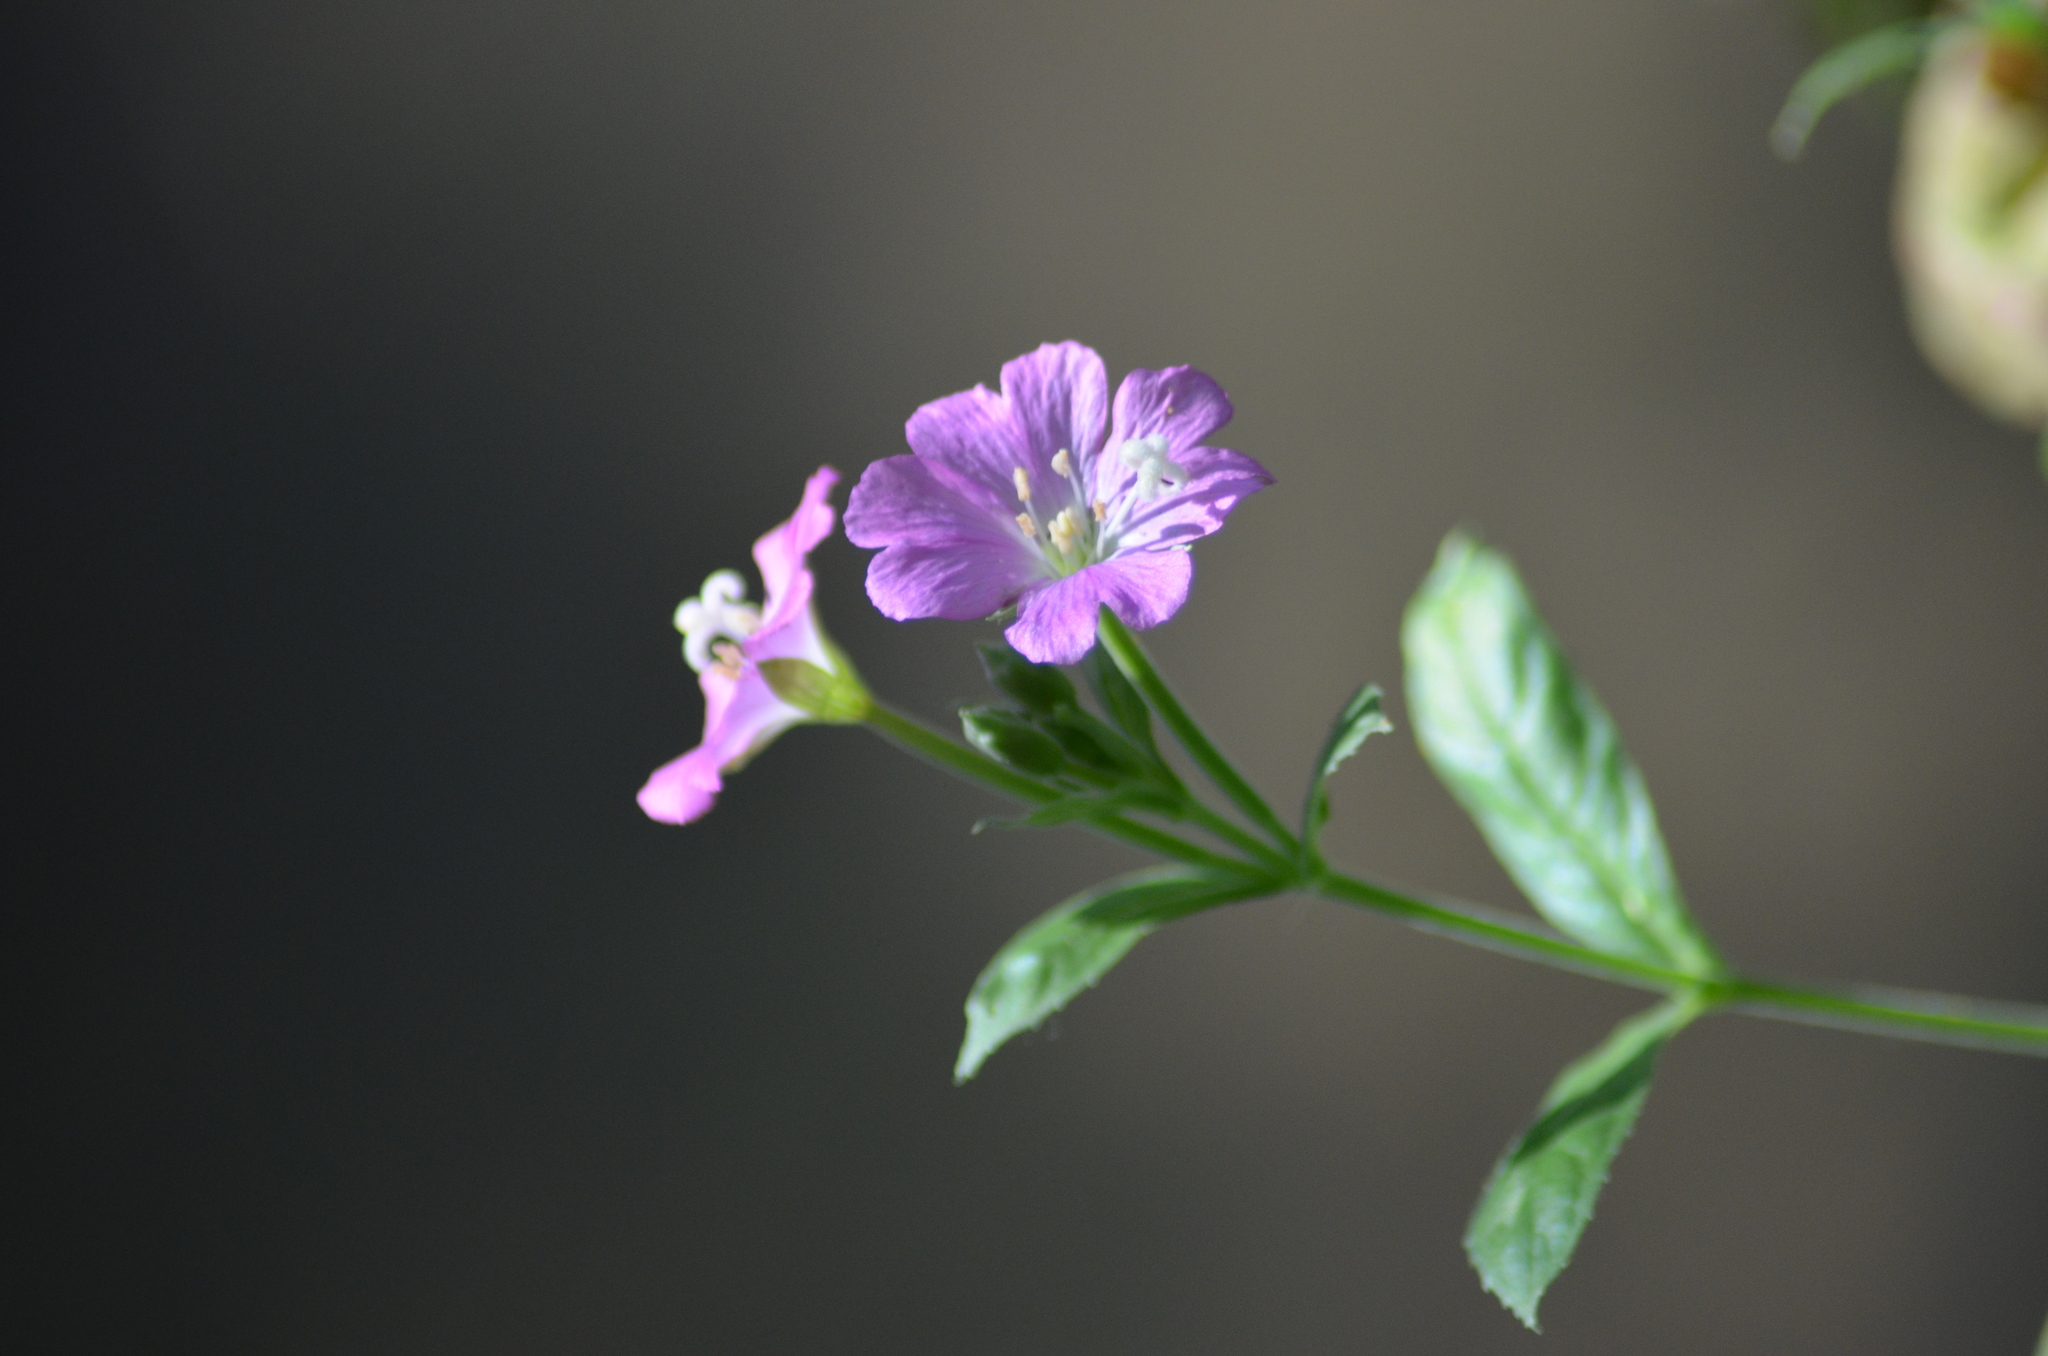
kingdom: Plantae
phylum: Tracheophyta
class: Magnoliopsida
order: Myrtales
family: Onagraceae
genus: Epilobium
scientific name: Epilobium hirsutum
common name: Great willowherb
